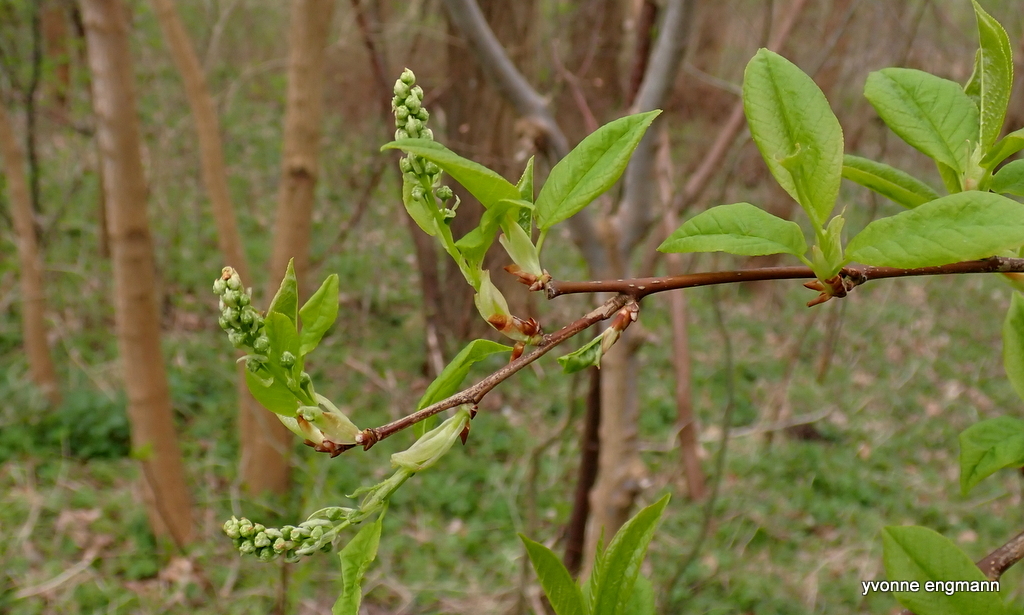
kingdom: Plantae
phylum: Tracheophyta
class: Magnoliopsida
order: Rosales
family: Rosaceae
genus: Prunus
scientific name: Prunus padus
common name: Bird cherry
